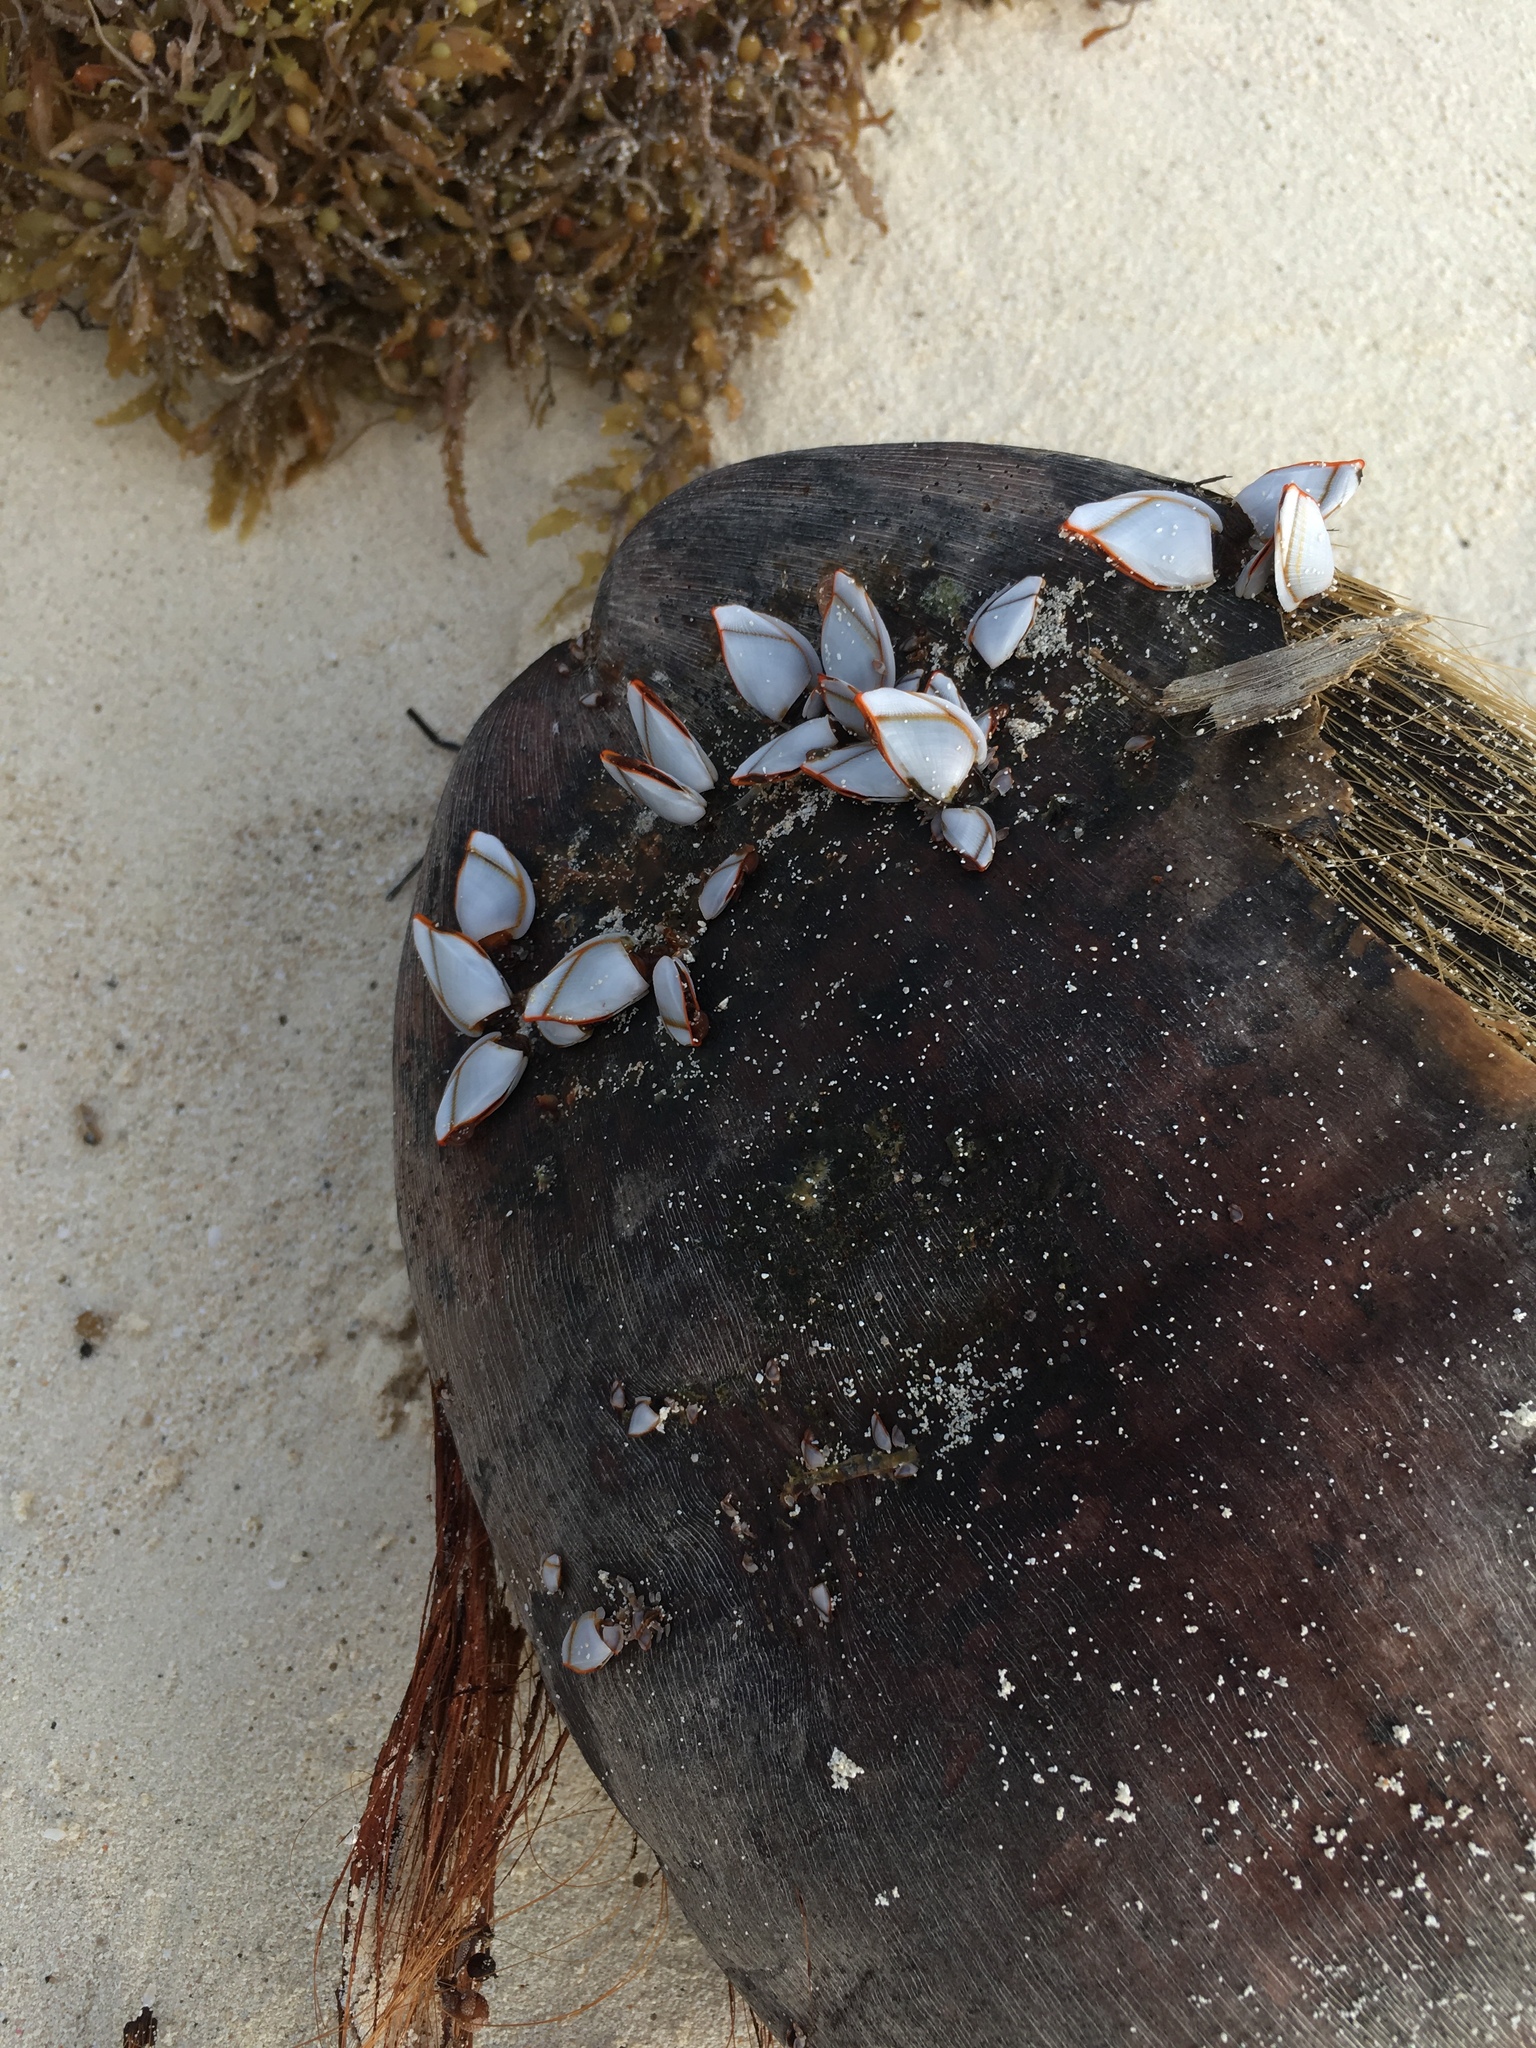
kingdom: Animalia
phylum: Arthropoda
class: Maxillopoda
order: Pedunculata
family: Lepadidae
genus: Lepas
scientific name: Lepas anserifera
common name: Goose barnacle
